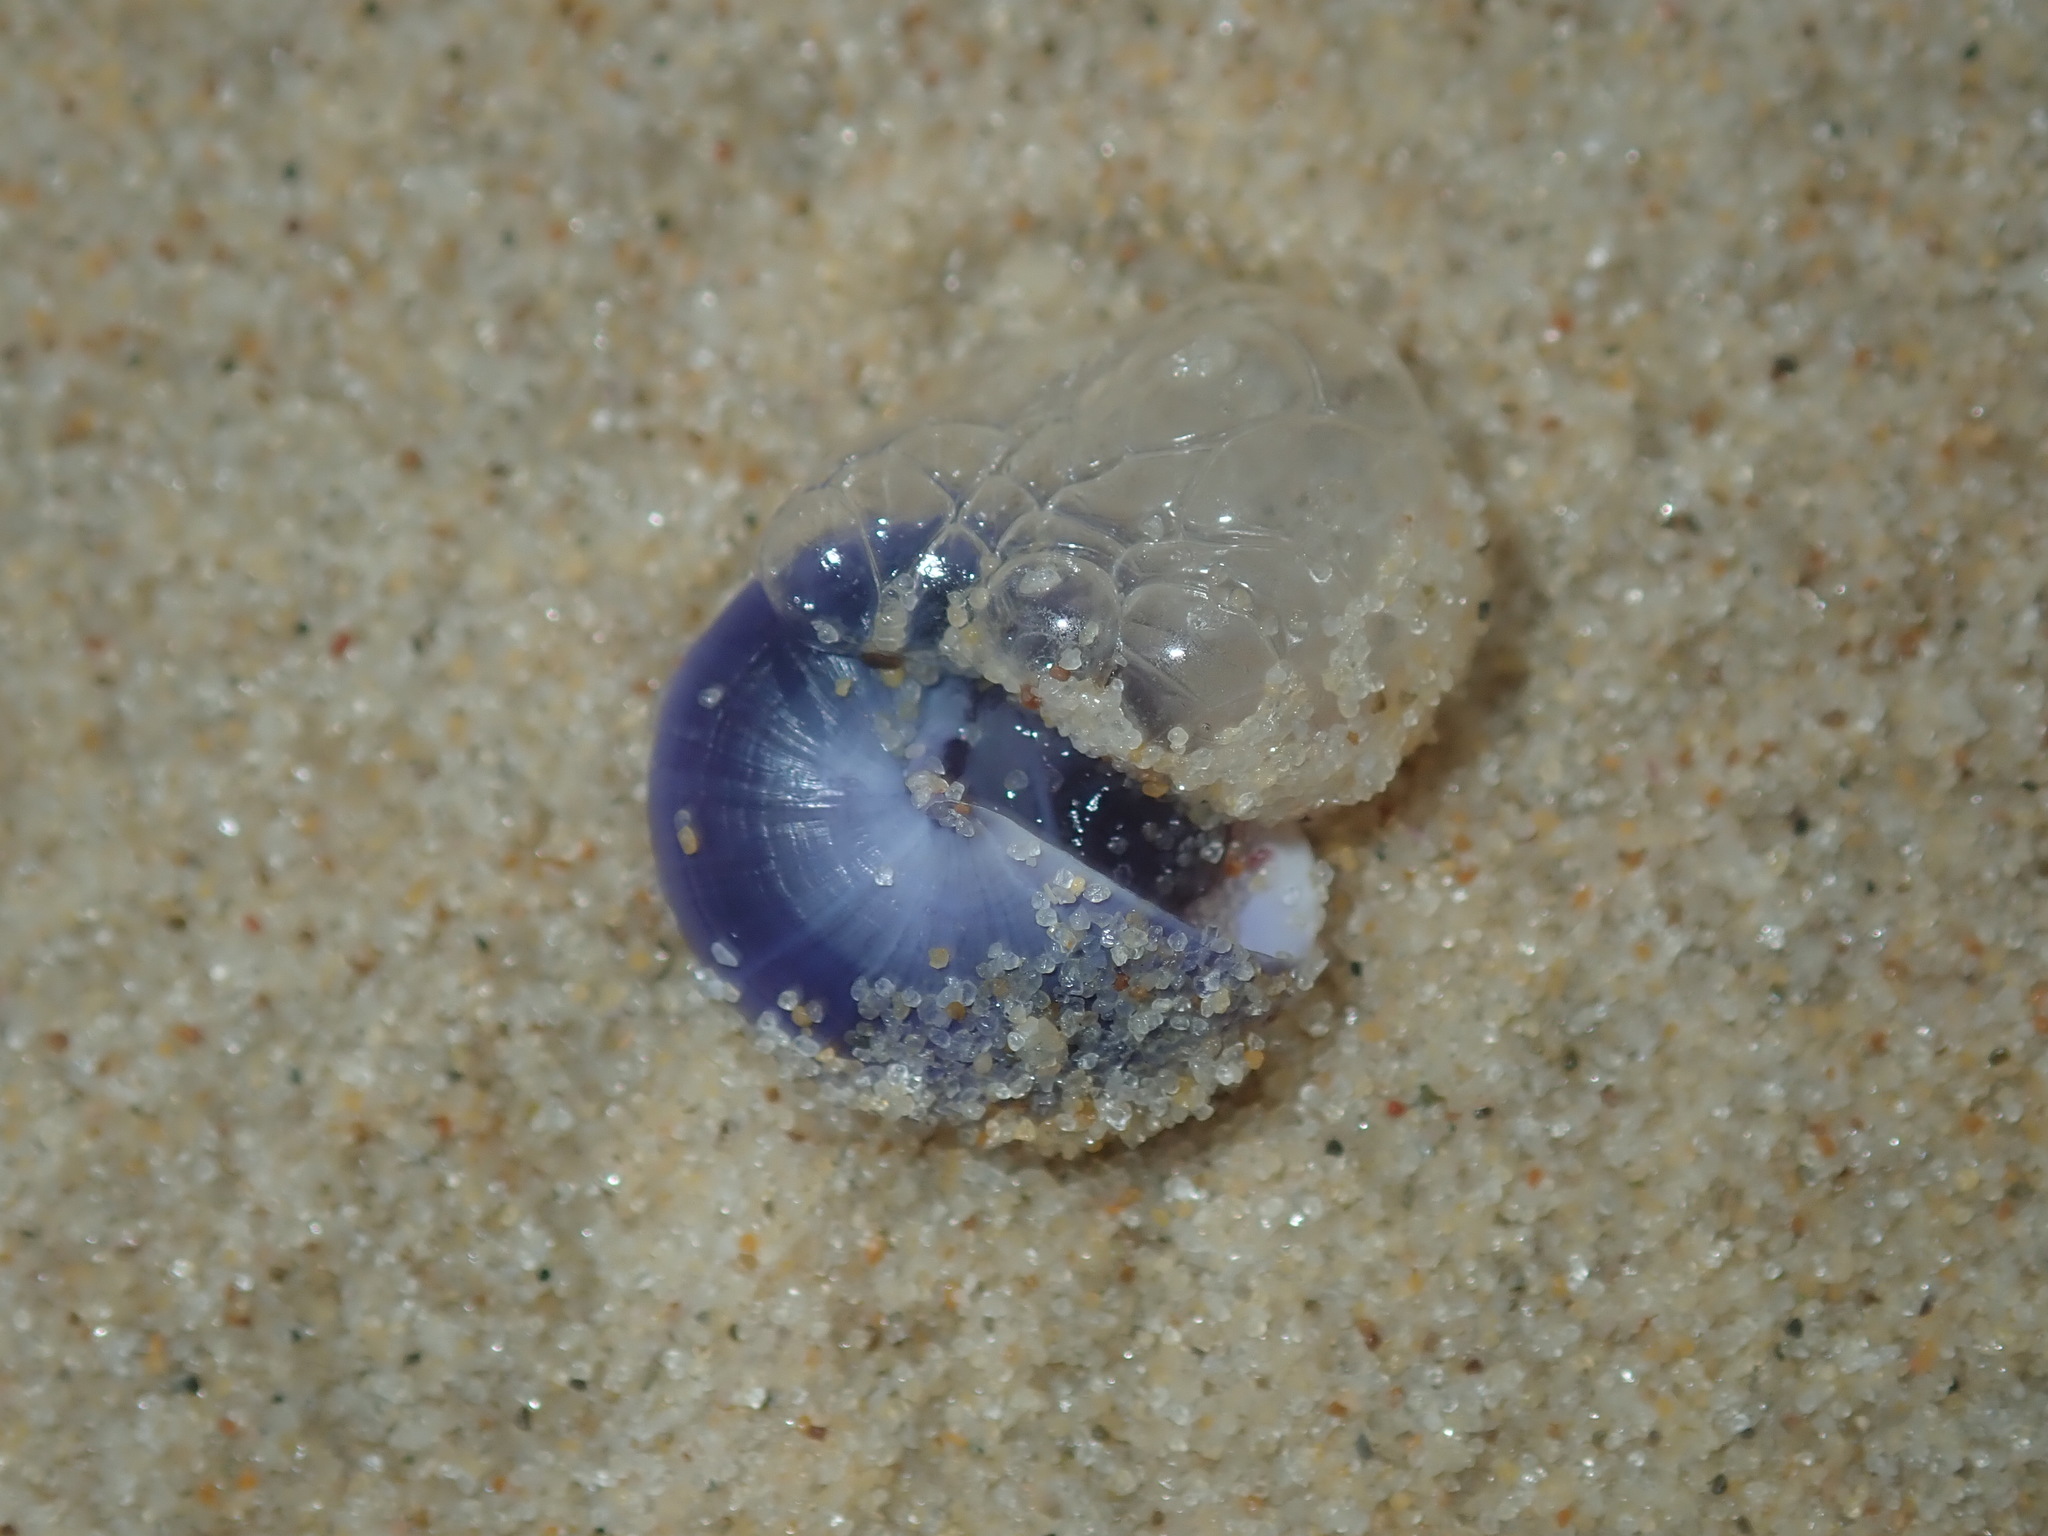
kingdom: Animalia
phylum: Mollusca
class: Gastropoda
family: Epitoniidae
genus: Janthina
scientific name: Janthina janthina
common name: Common janthina
